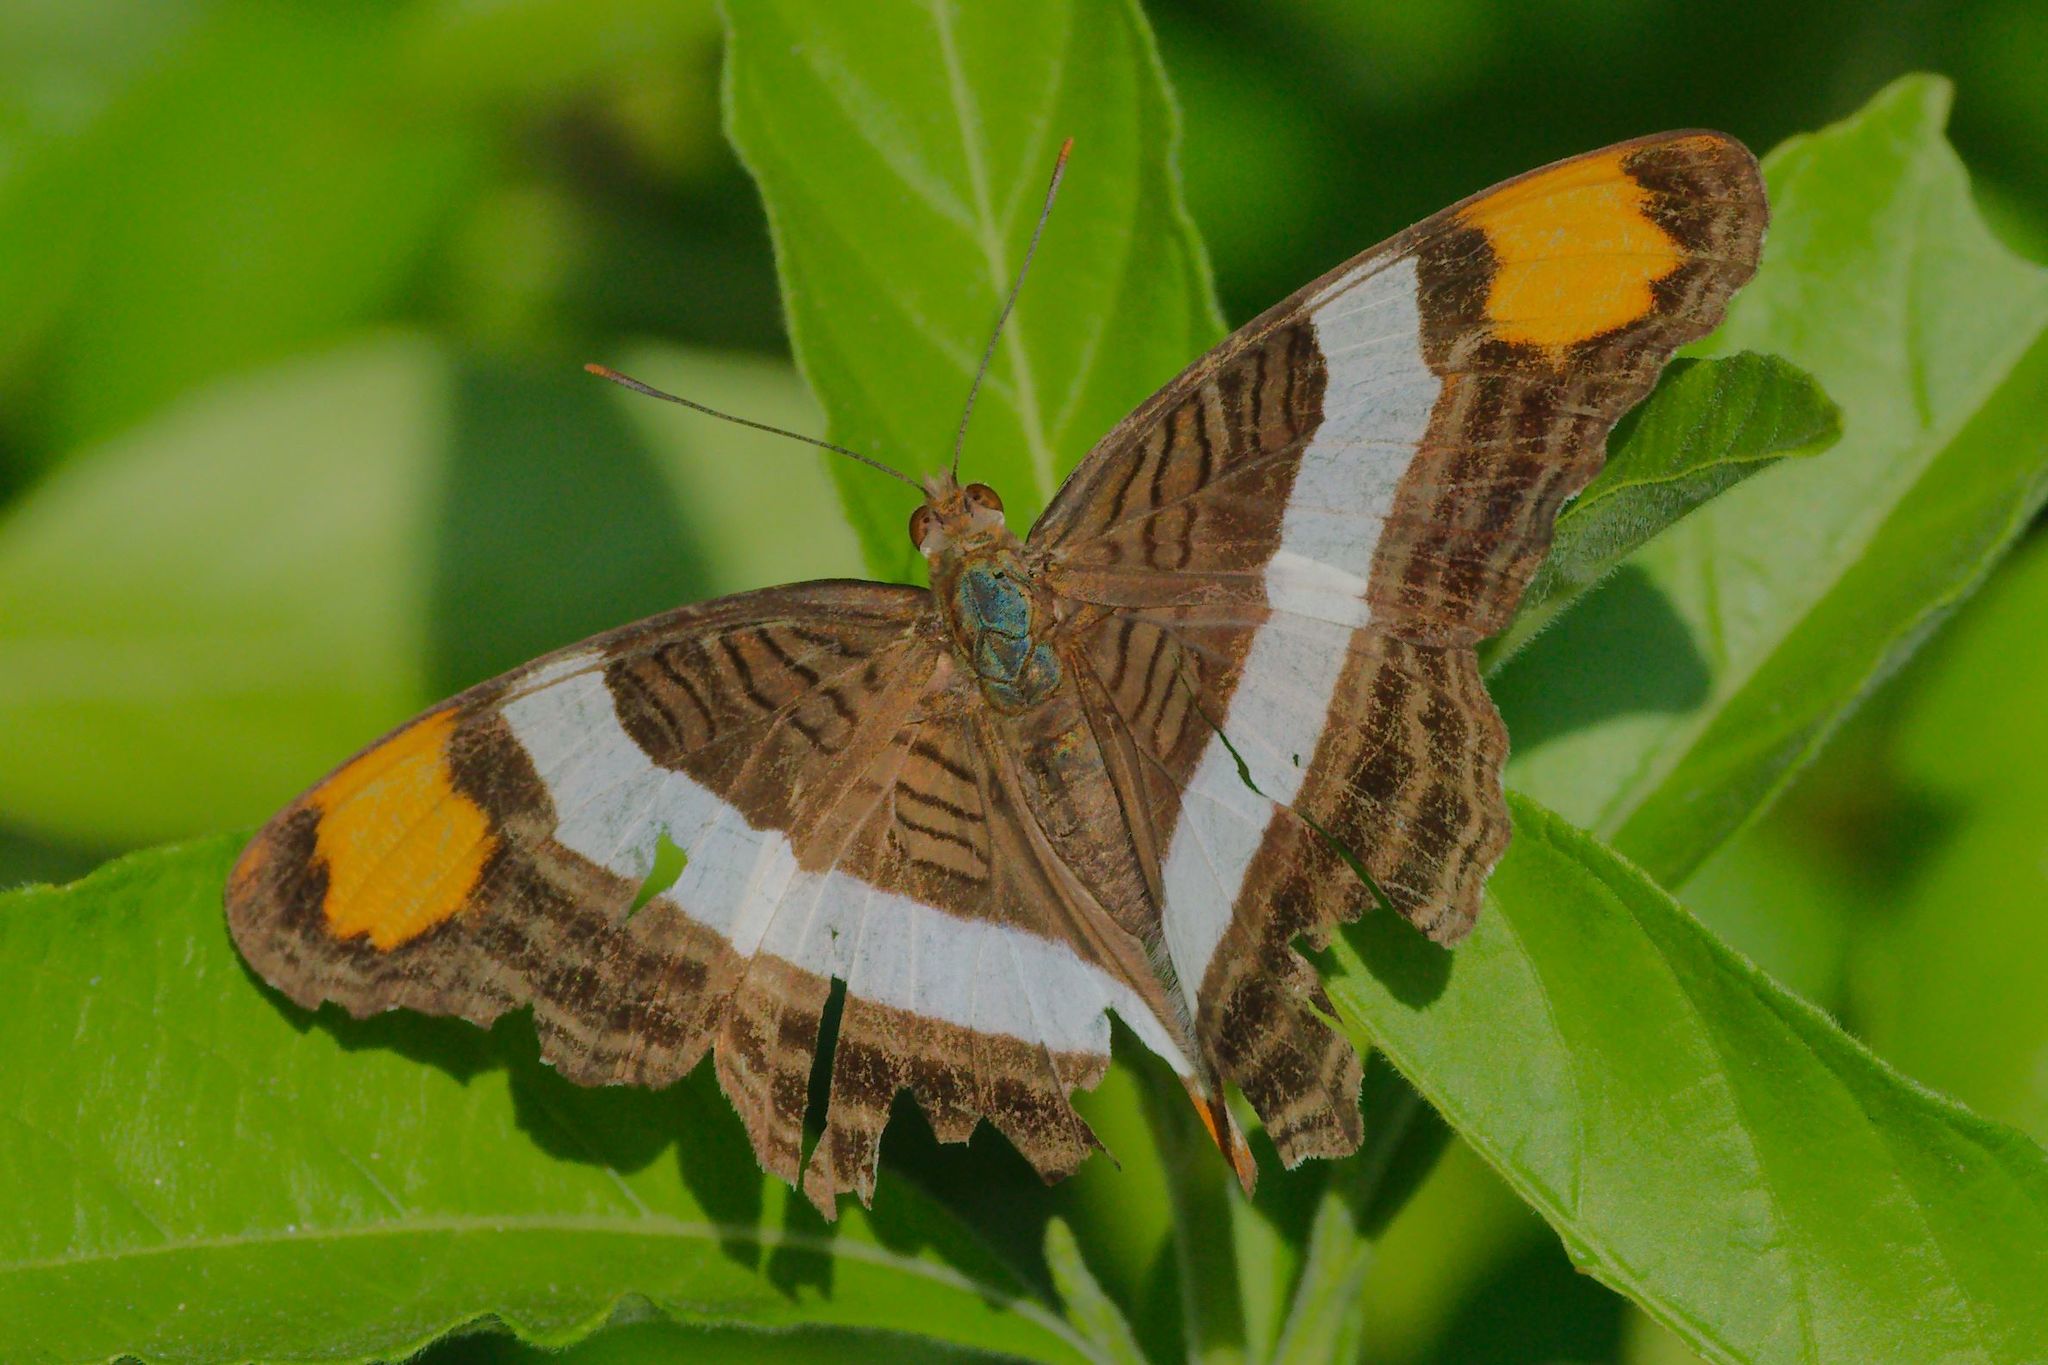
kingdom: Animalia
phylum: Arthropoda
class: Insecta
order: Lepidoptera
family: Nymphalidae
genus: Limenitis
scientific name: Limenitis fessonia
